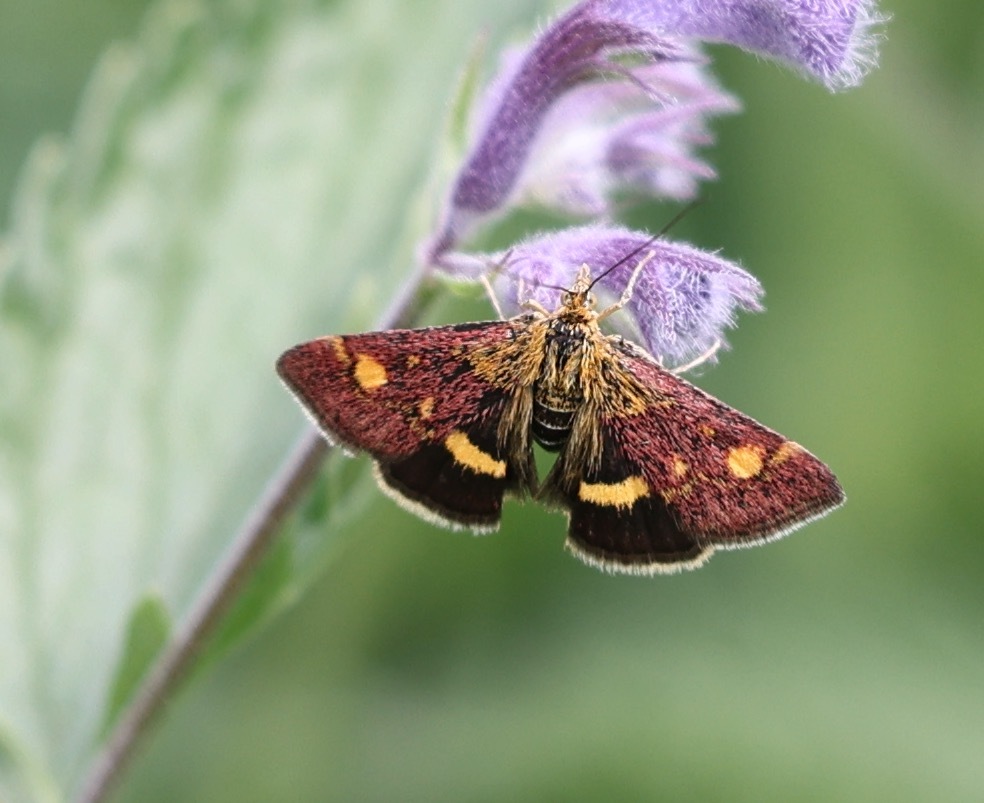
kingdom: Animalia
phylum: Arthropoda
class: Insecta
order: Lepidoptera
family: Crambidae
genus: Pyrausta
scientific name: Pyrausta aurata
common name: Small purple & gold
